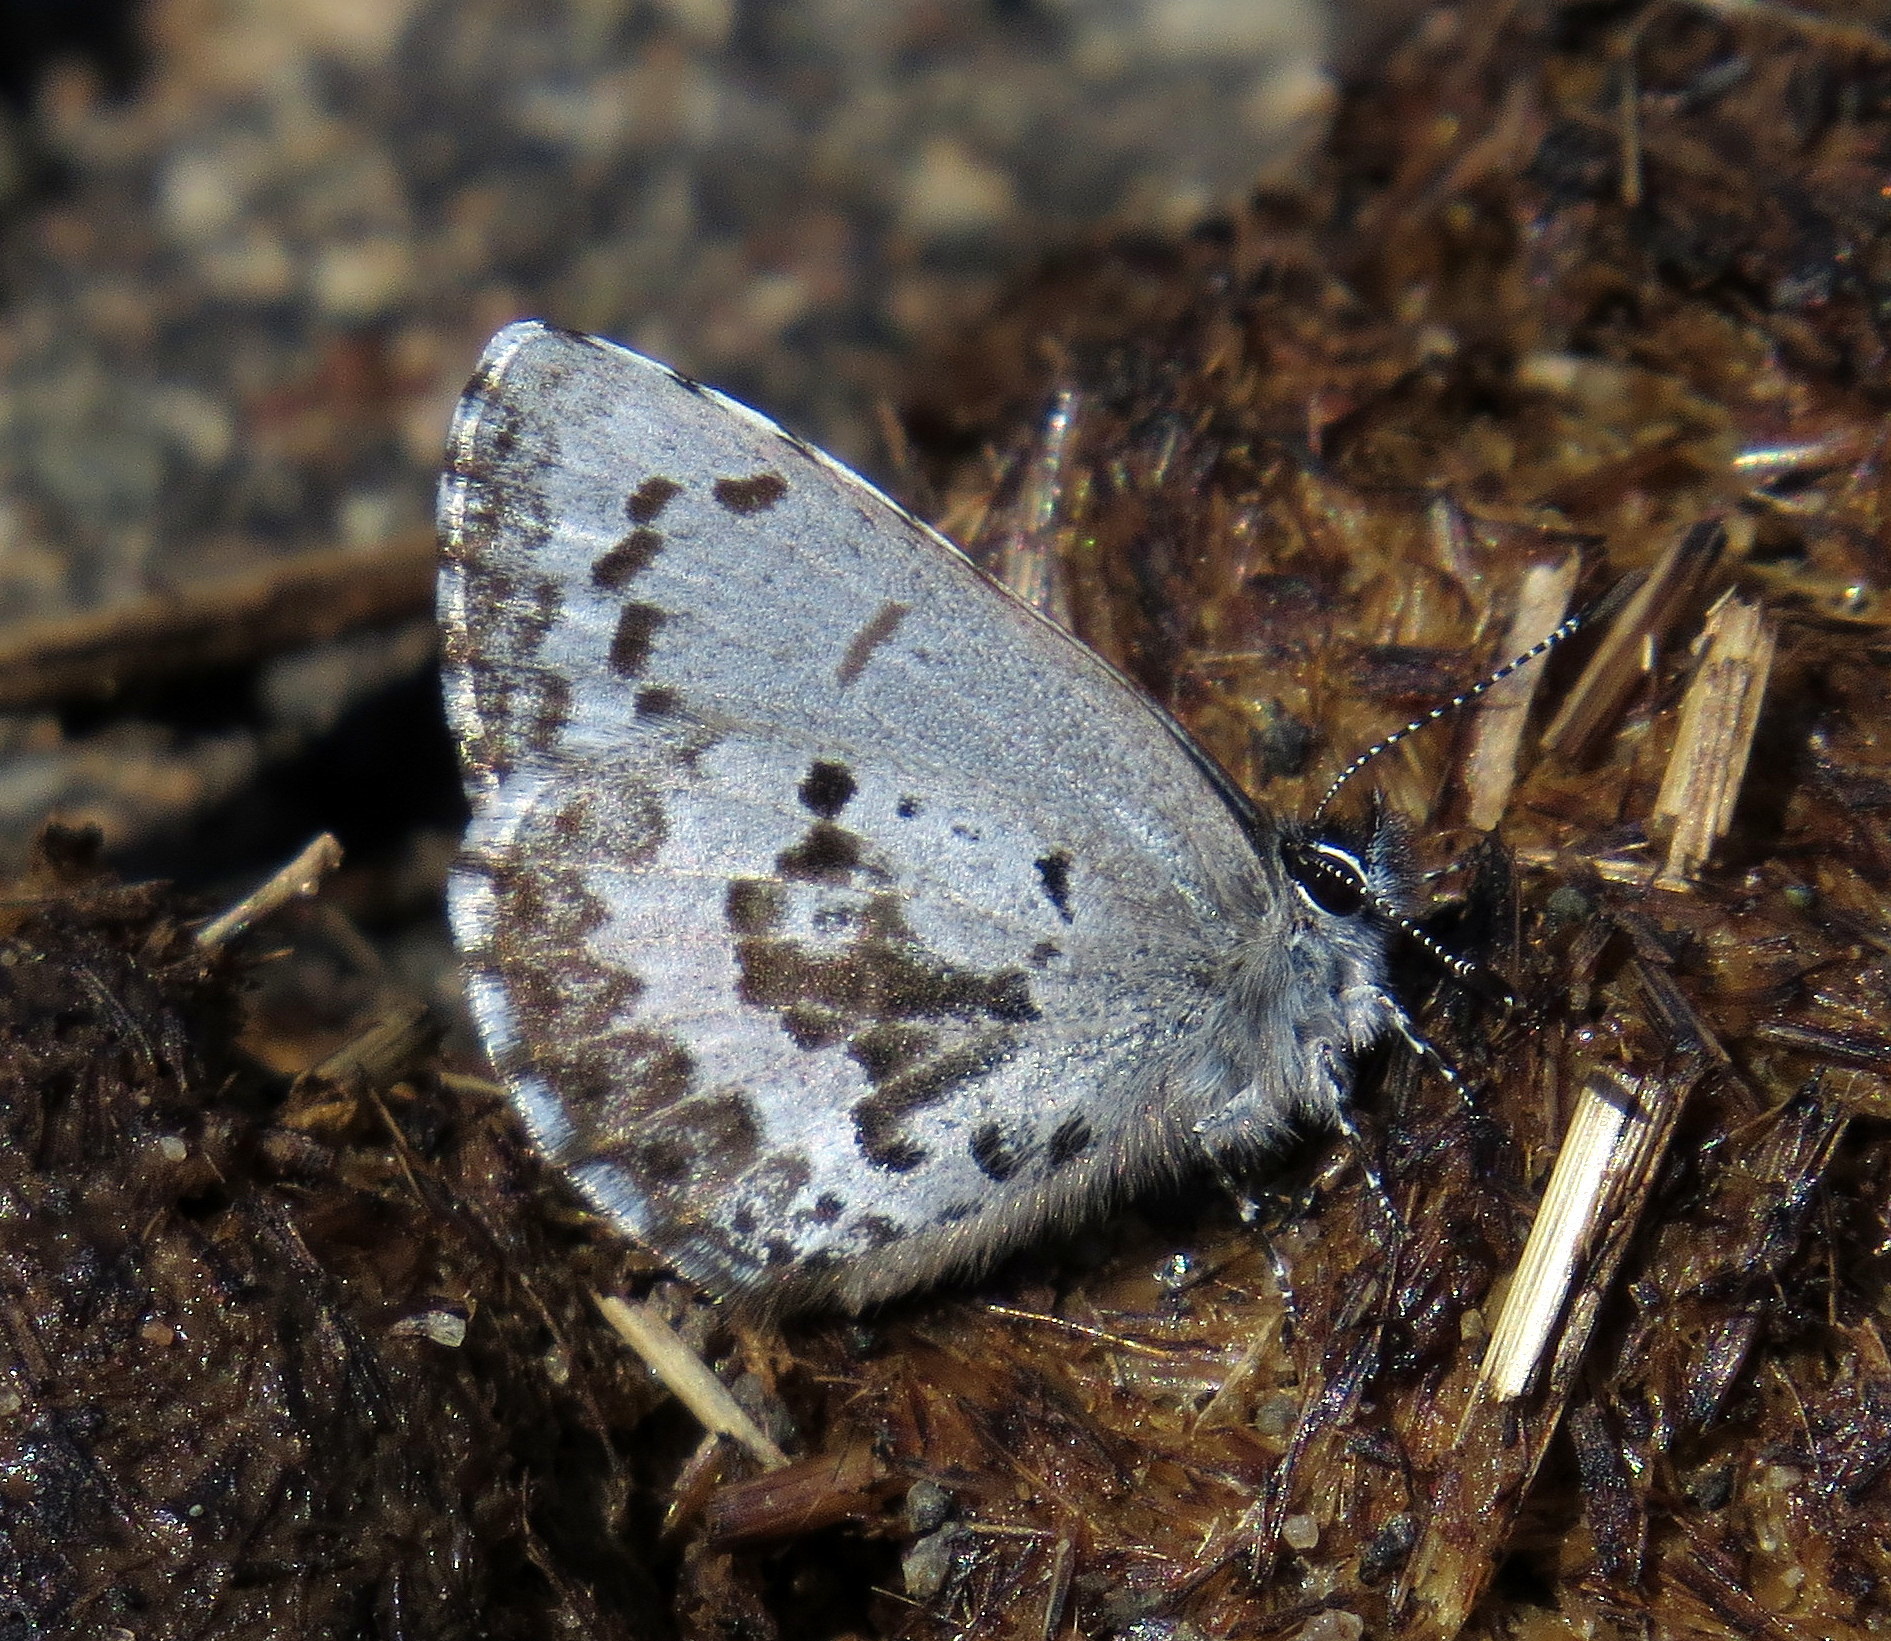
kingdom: Animalia
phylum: Arthropoda
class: Insecta
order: Lepidoptera
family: Lycaenidae
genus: Celastrina
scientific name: Celastrina ladon
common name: Spring azure
